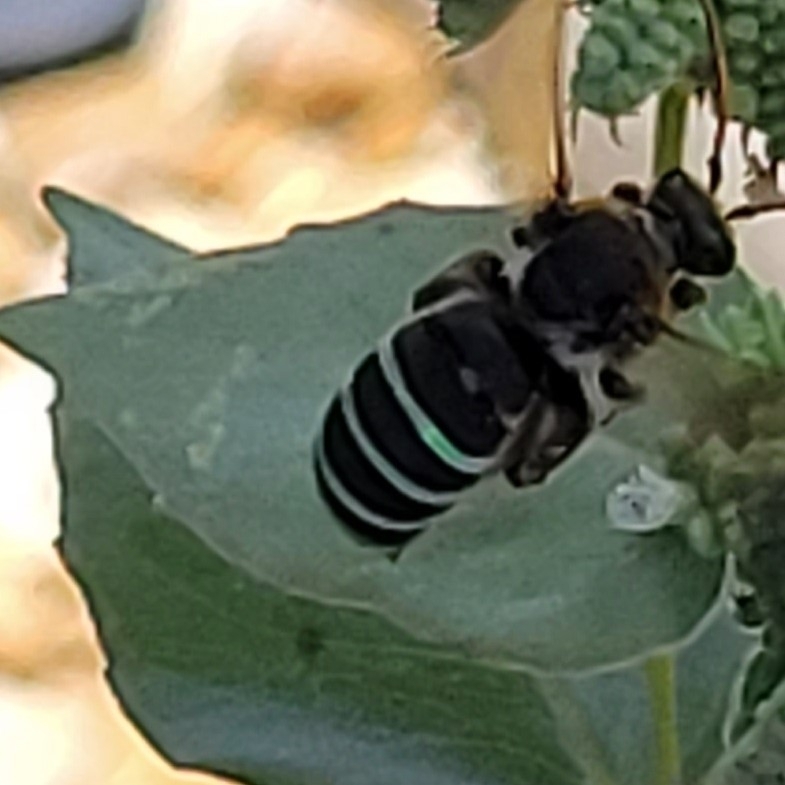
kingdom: Animalia
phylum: Arthropoda
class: Insecta
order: Hymenoptera
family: Halictidae
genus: Nomia
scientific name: Nomia nortoni
